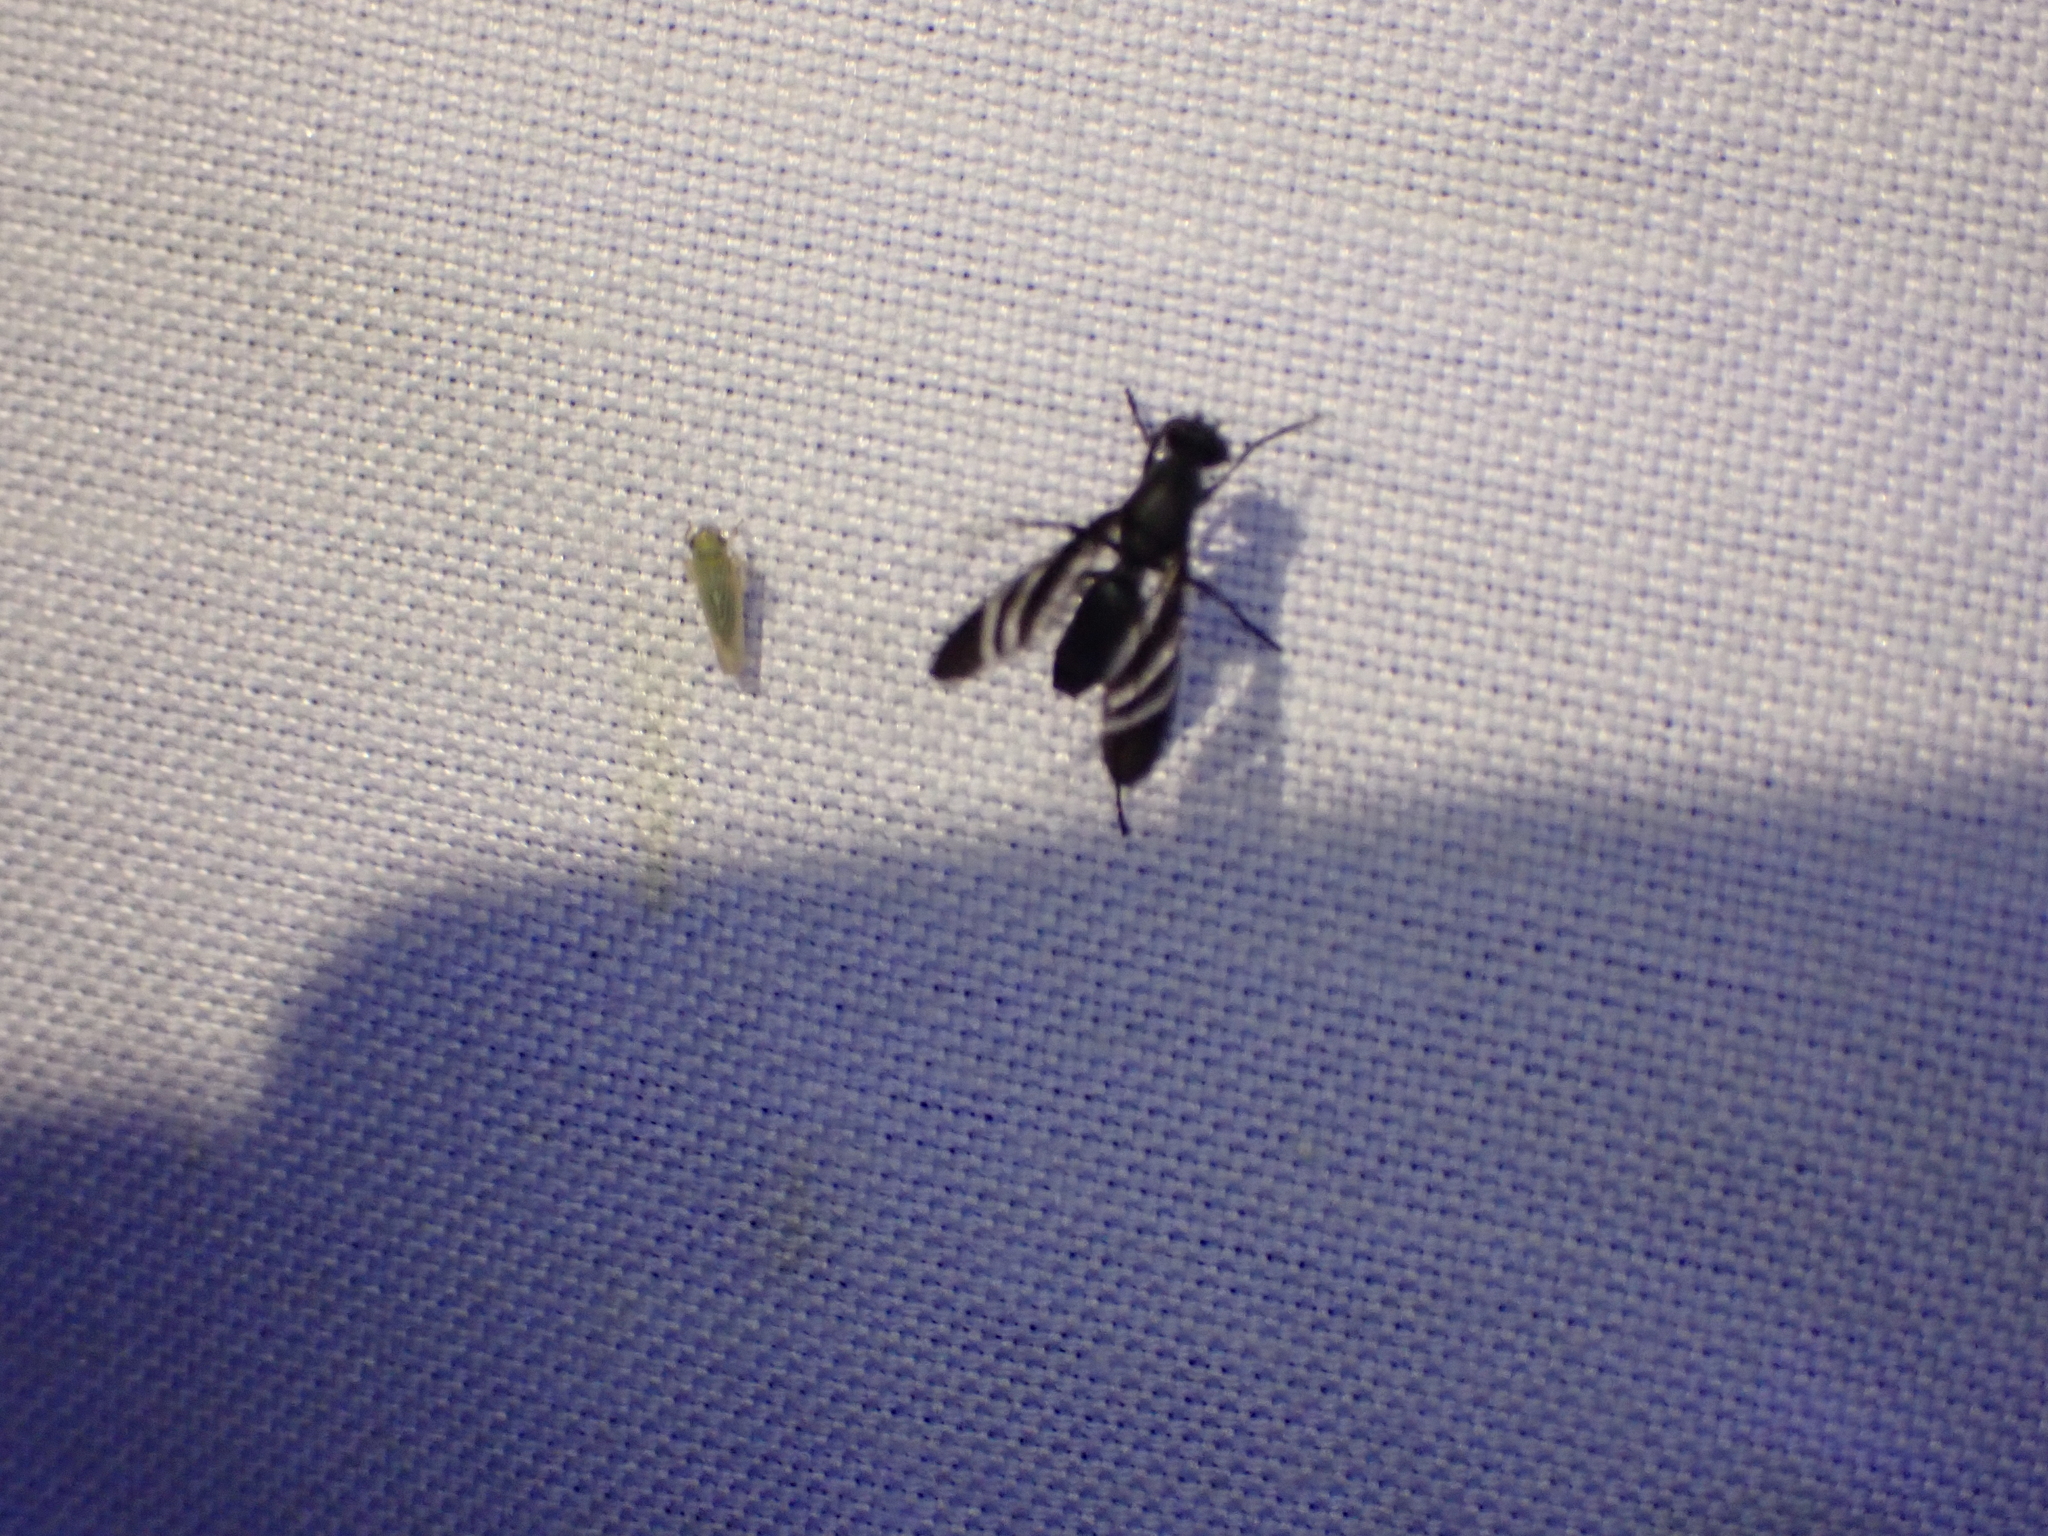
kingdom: Animalia
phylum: Arthropoda
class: Insecta
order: Diptera
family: Ulidiidae
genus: Tritoxa
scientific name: Tritoxa flexa
